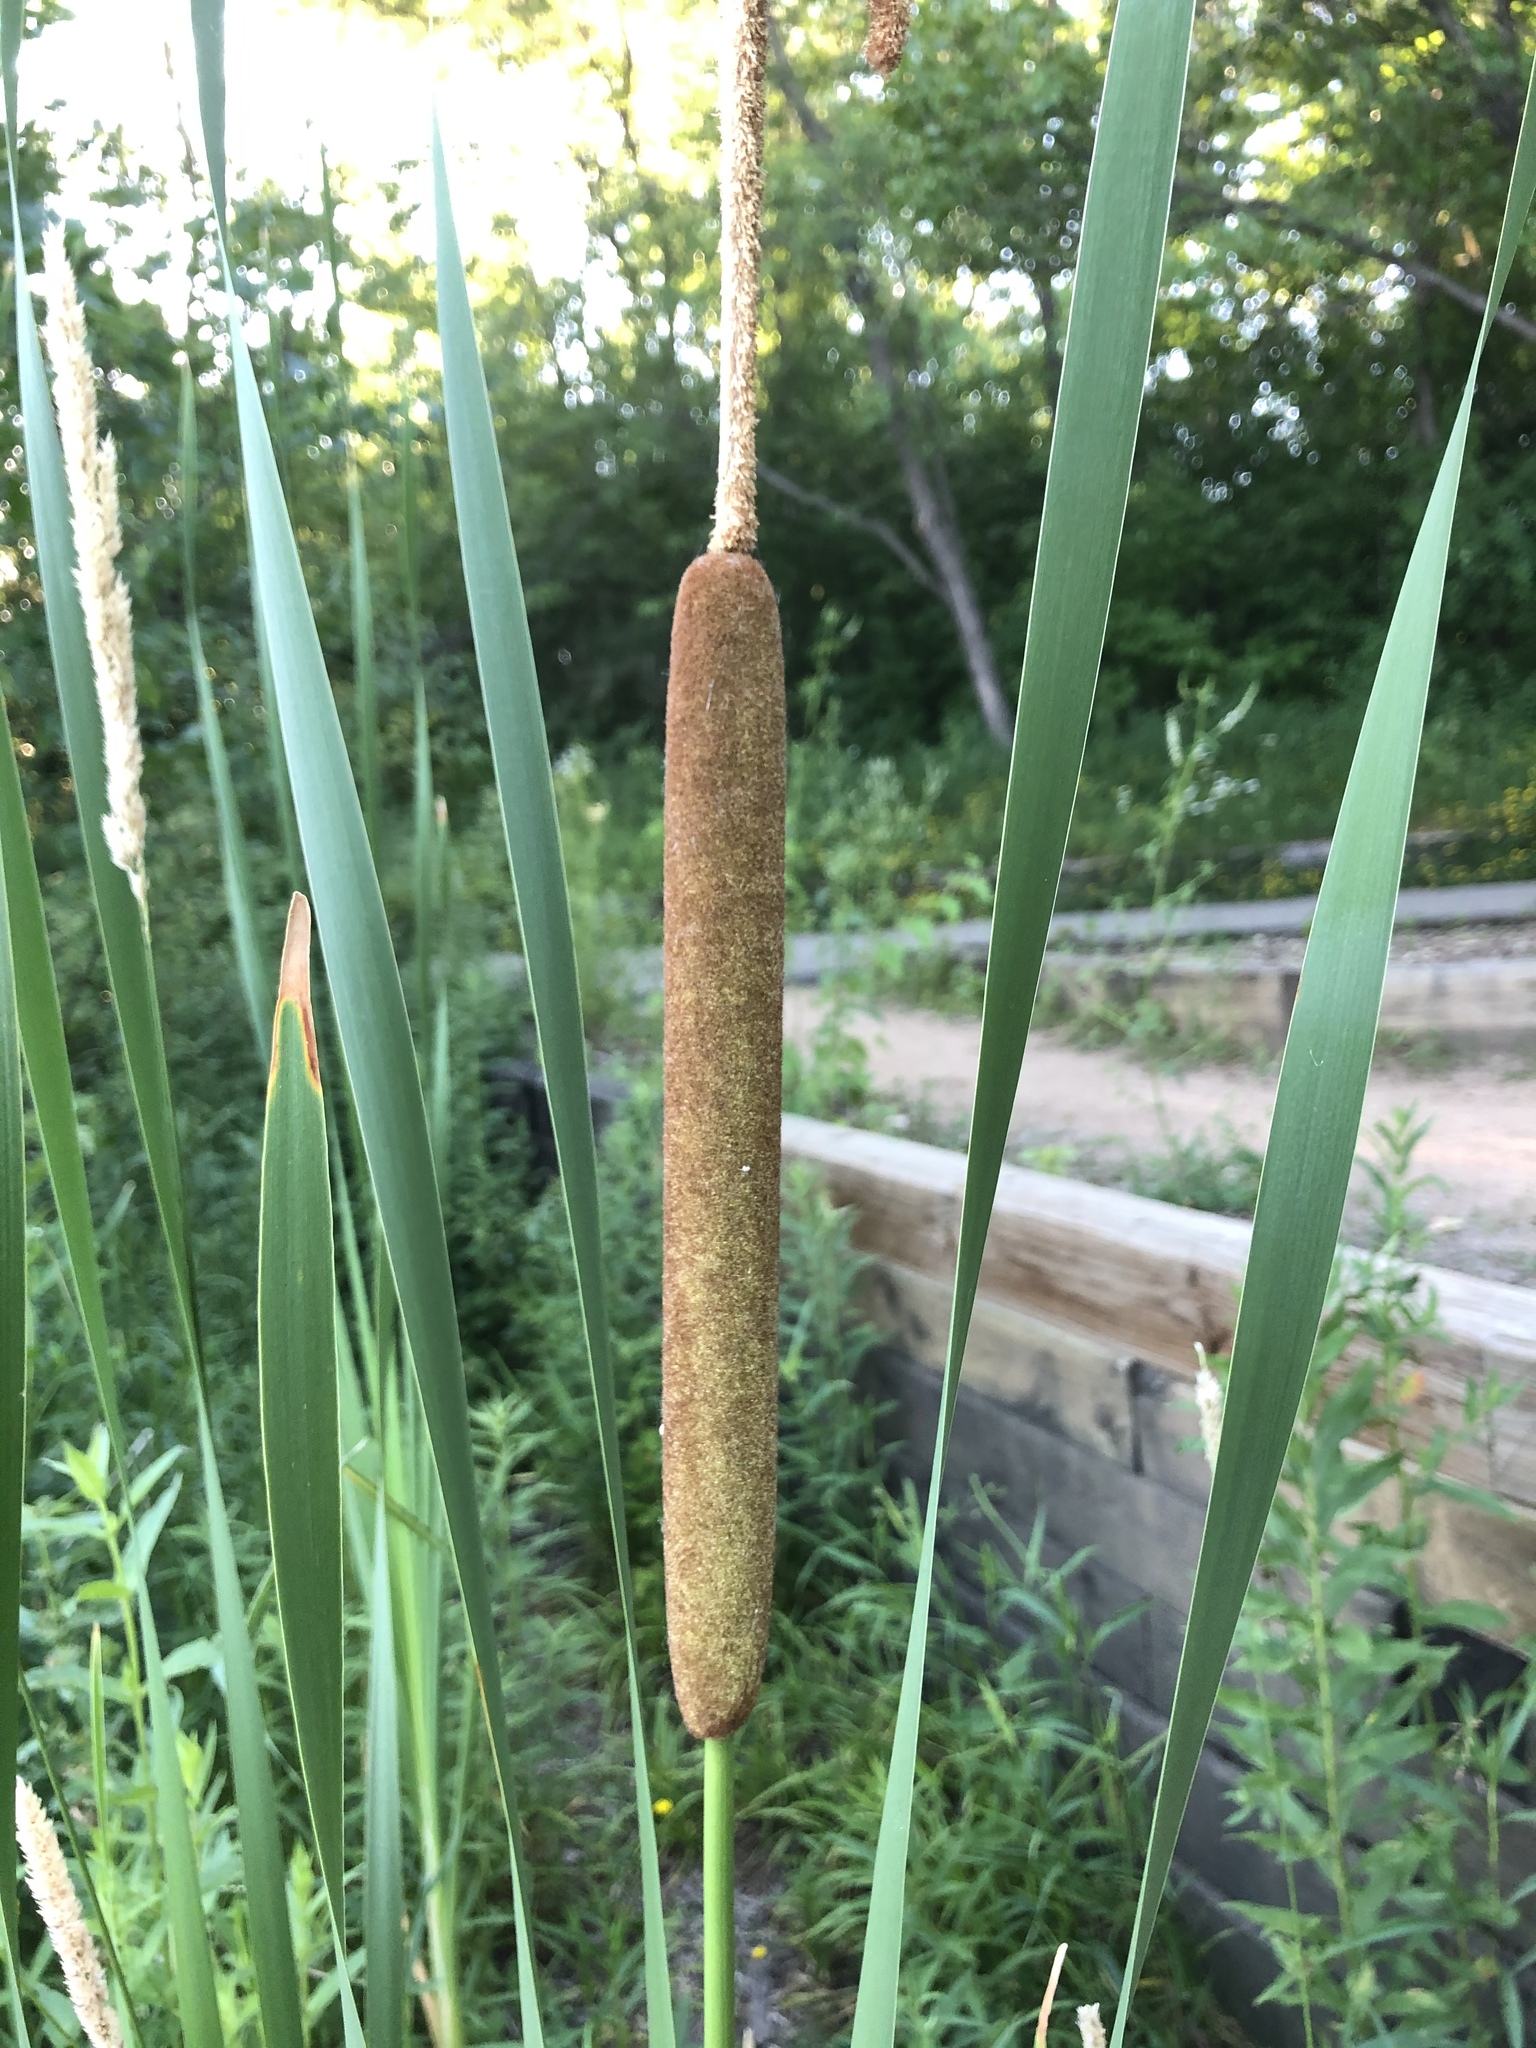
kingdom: Plantae
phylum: Tracheophyta
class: Liliopsida
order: Poales
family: Typhaceae
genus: Typha
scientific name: Typha angustifolia
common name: Lesser bulrush
